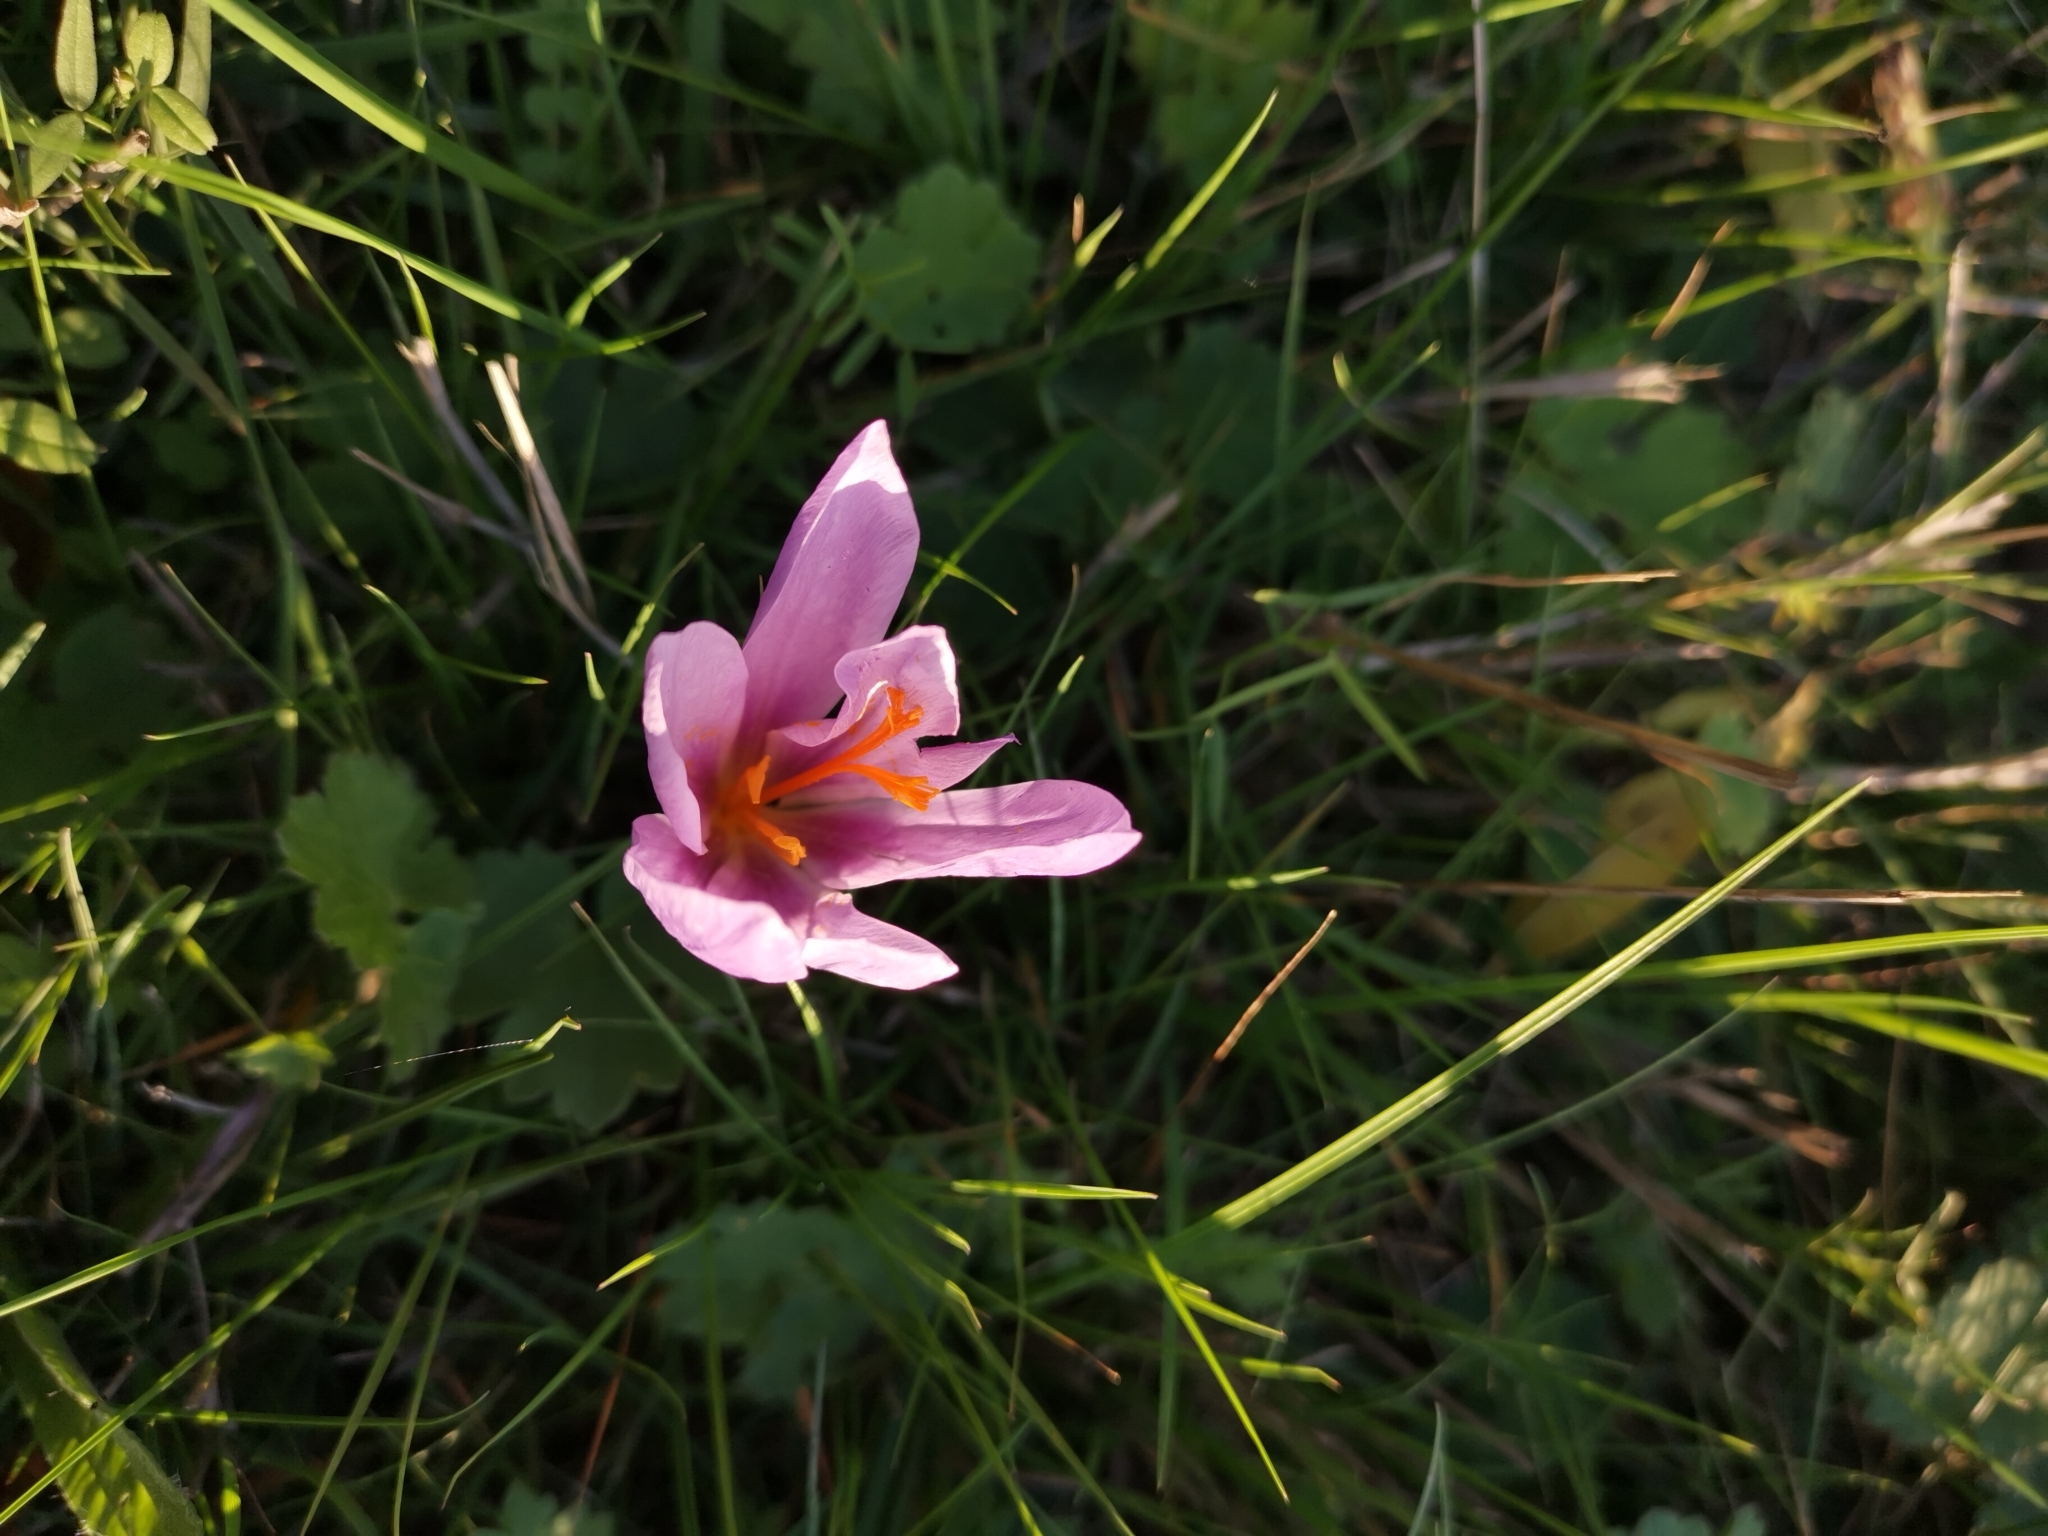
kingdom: Plantae
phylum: Tracheophyta
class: Liliopsida
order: Asparagales
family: Iridaceae
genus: Crocus
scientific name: Crocus serotinus
